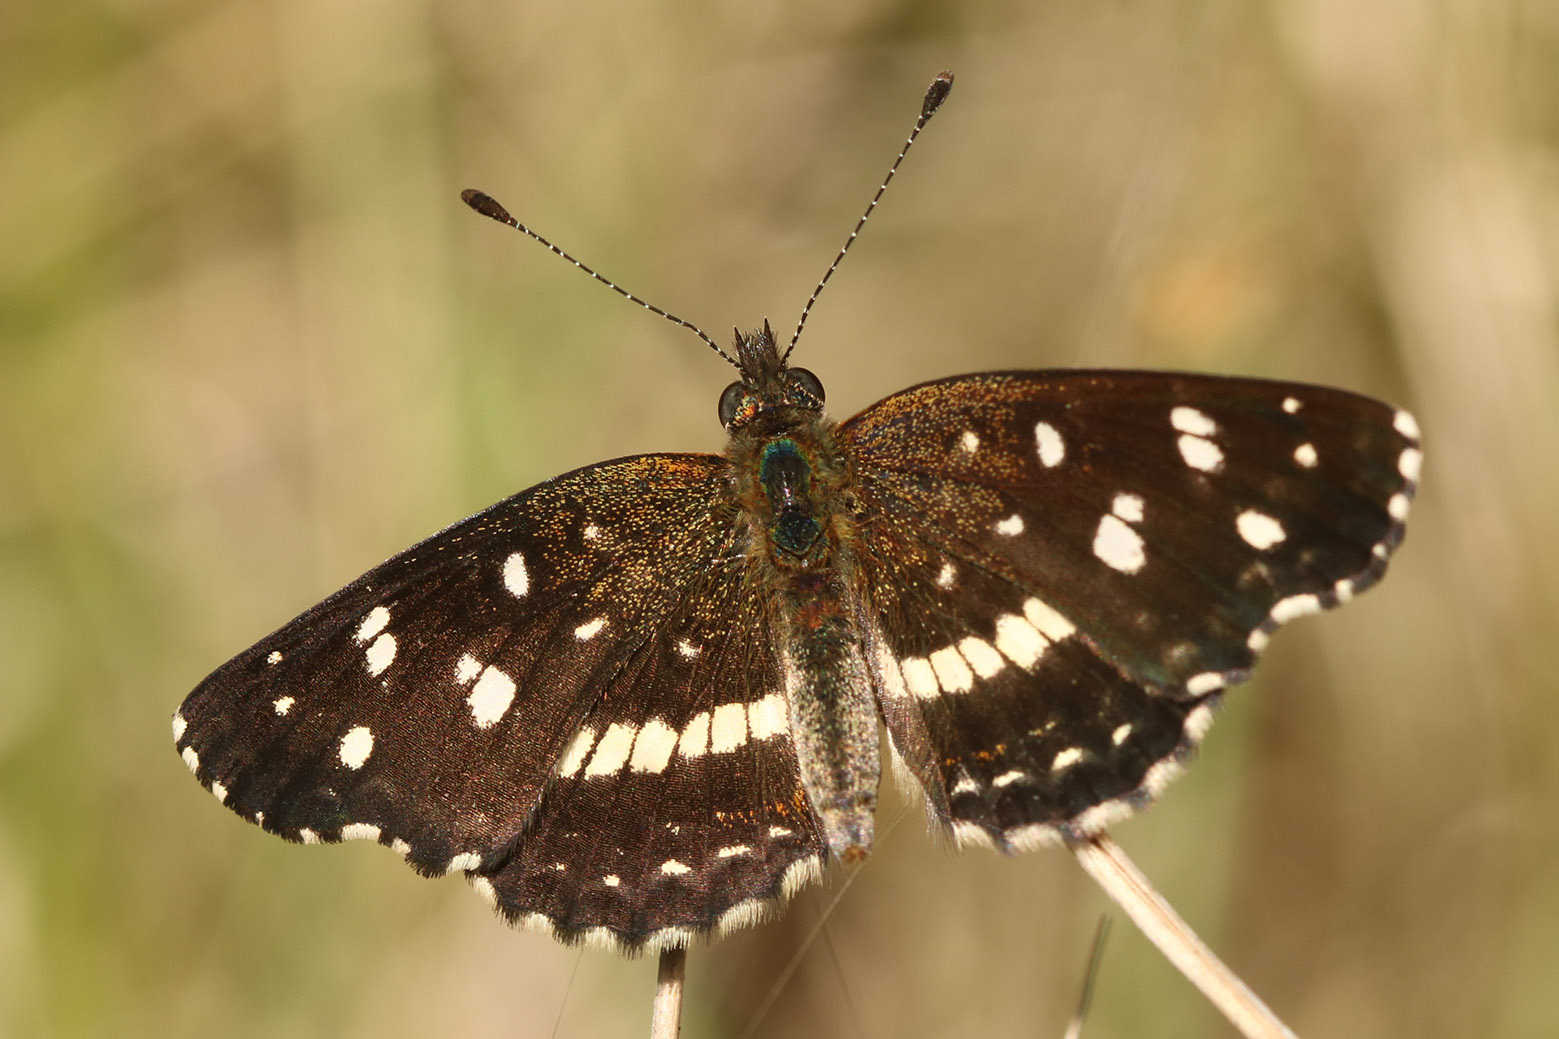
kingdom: Animalia
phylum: Arthropoda
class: Insecta
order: Lepidoptera
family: Nymphalidae
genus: Ortilia
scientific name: Ortilia ithra
